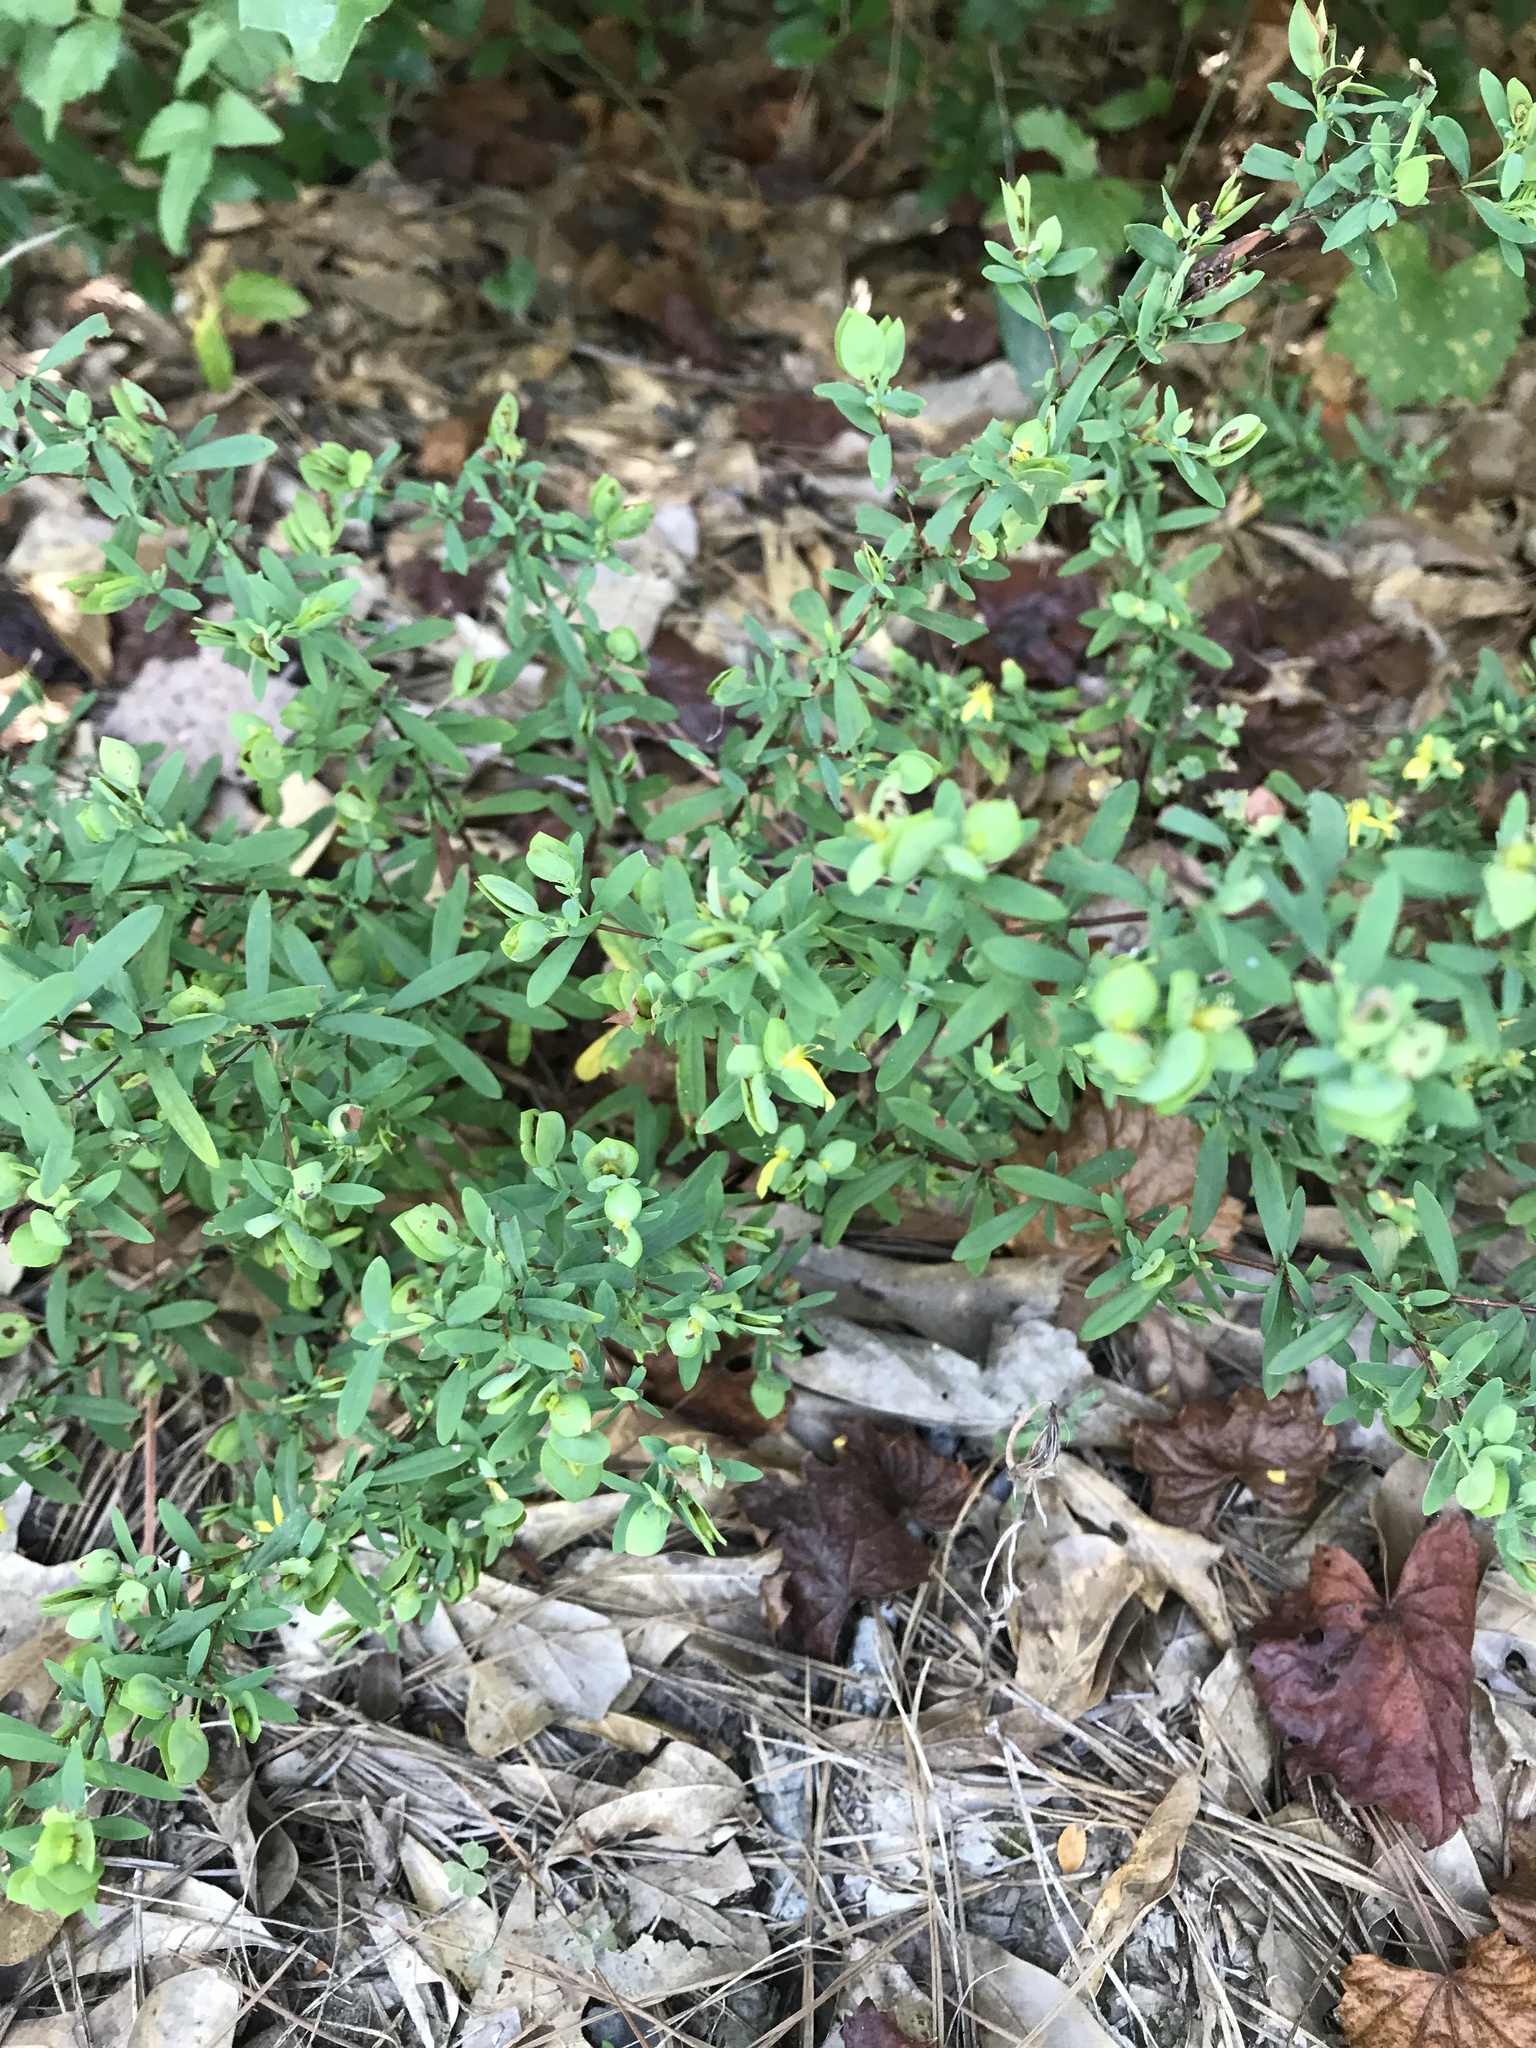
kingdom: Plantae
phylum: Tracheophyta
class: Magnoliopsida
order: Malpighiales
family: Hypericaceae
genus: Hypericum
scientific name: Hypericum hypericoides
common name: St. andrew's cross
